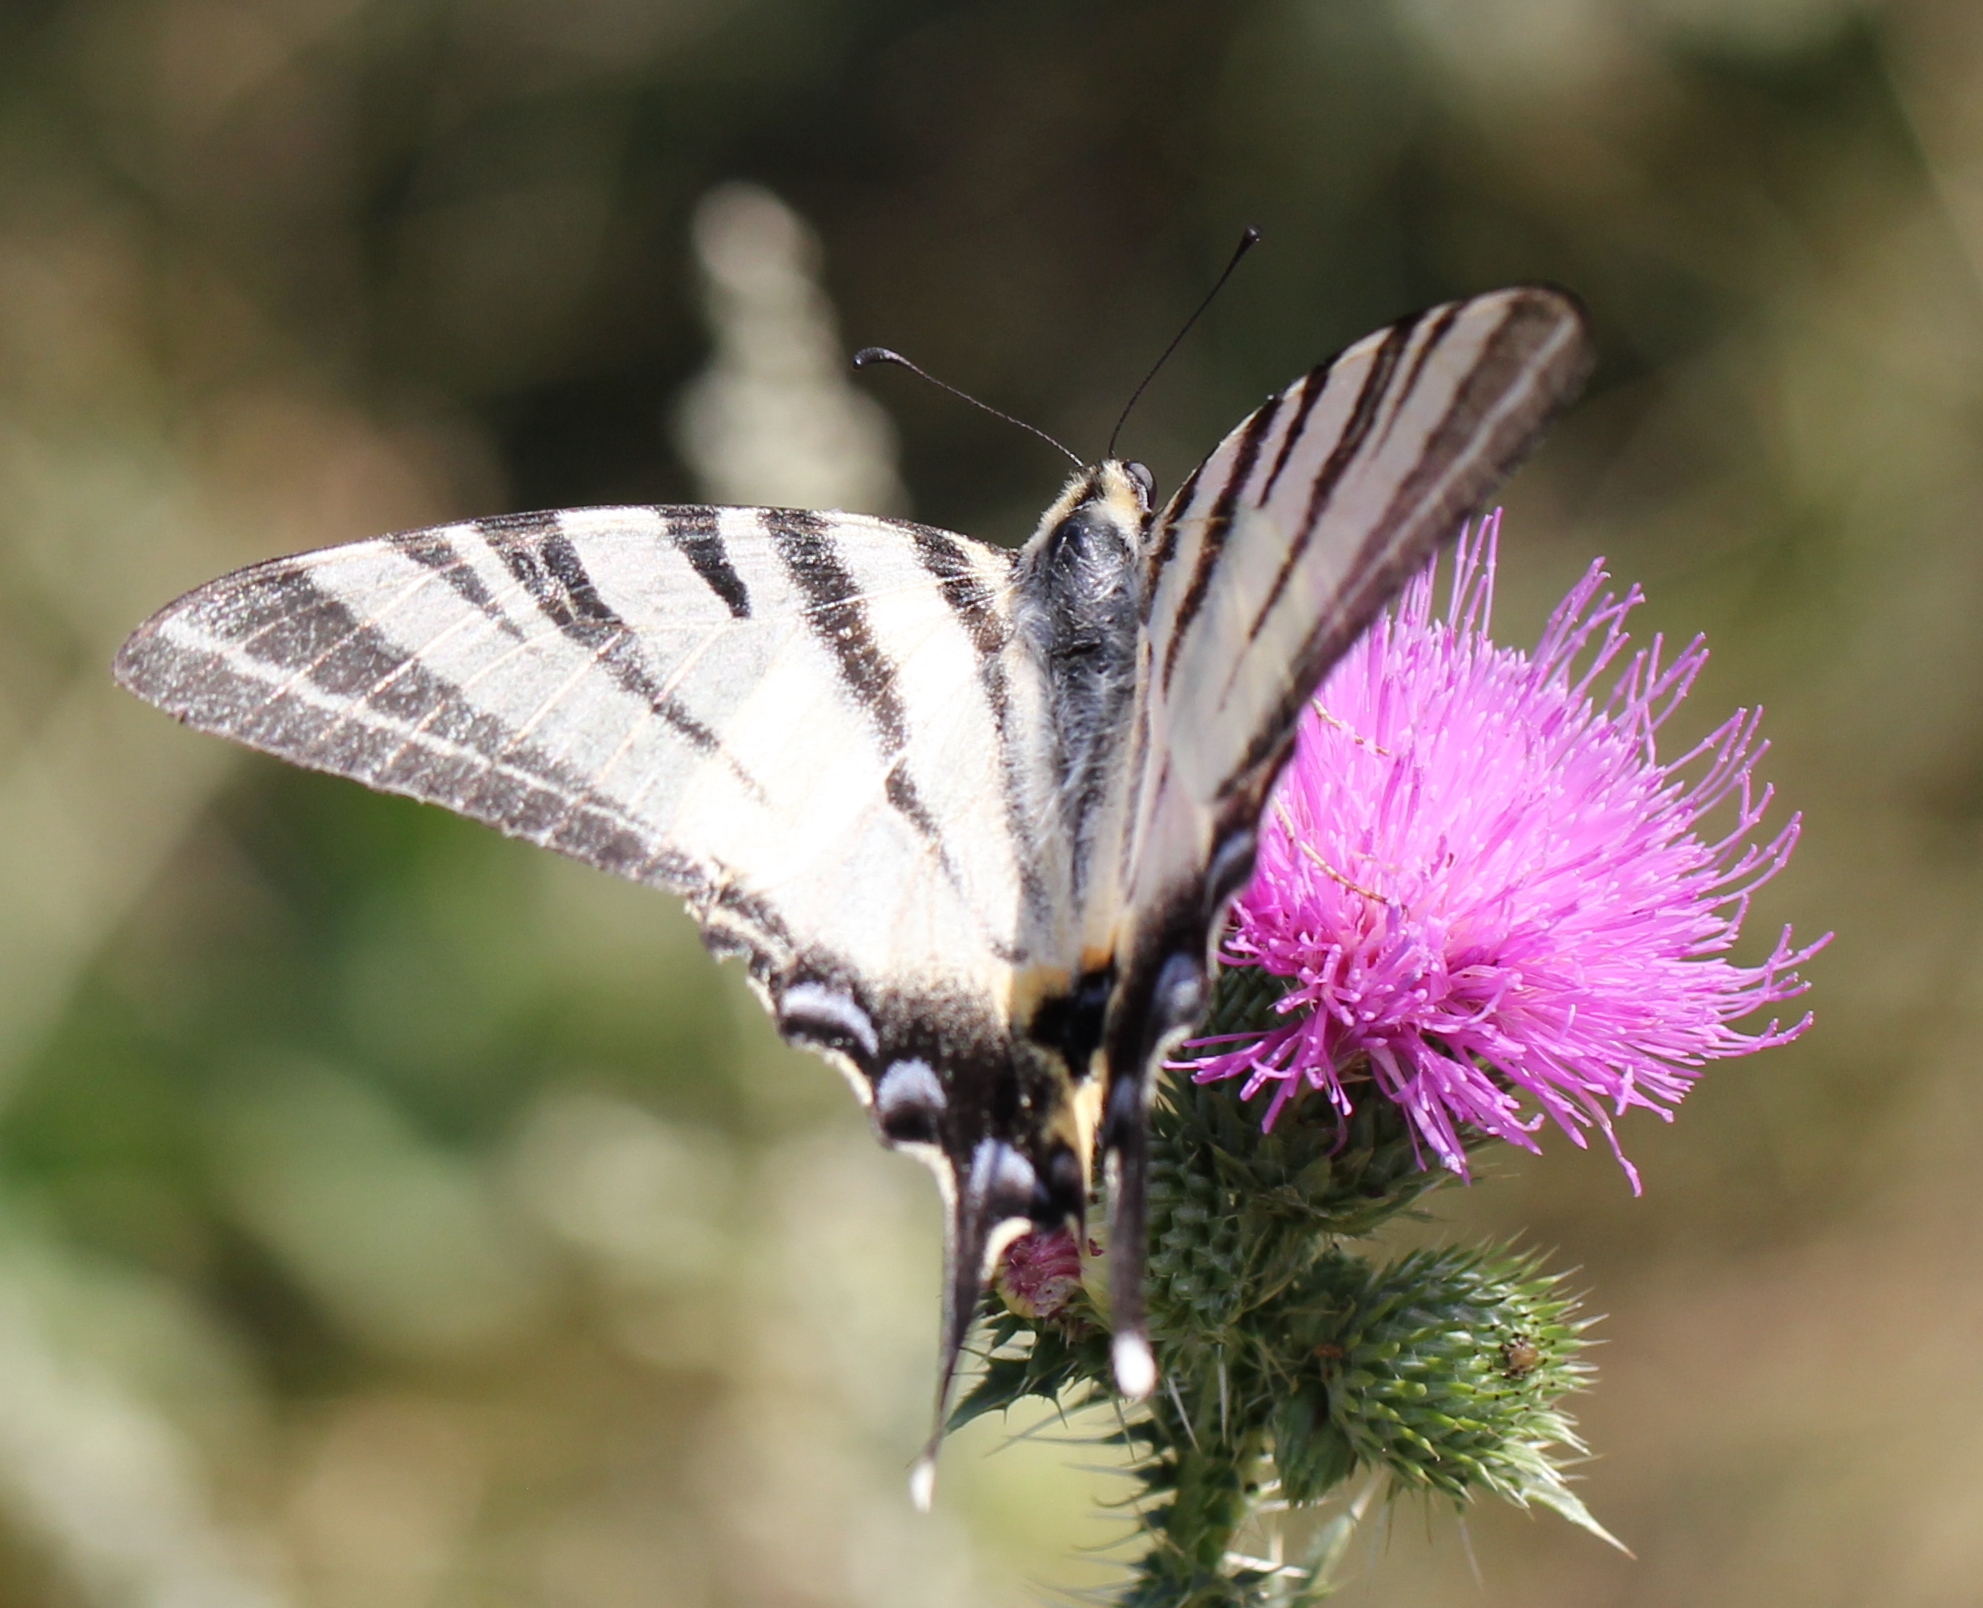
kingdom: Animalia
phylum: Arthropoda
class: Insecta
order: Lepidoptera
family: Papilionidae
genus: Iphiclides
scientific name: Iphiclides podalirius
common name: Scarce swallowtail
